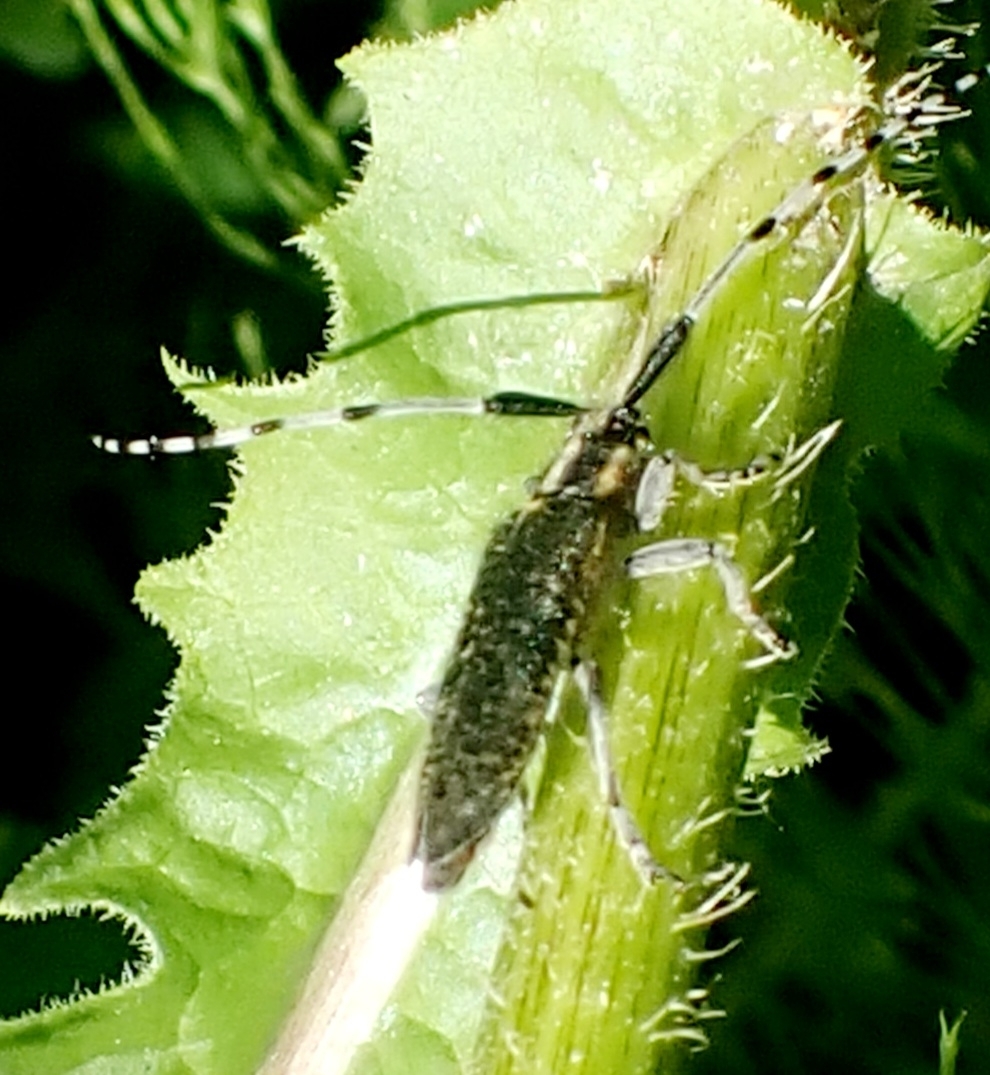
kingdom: Animalia
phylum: Arthropoda
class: Insecta
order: Coleoptera
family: Cerambycidae
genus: Agapanthia
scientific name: Agapanthia villosoviridescens
